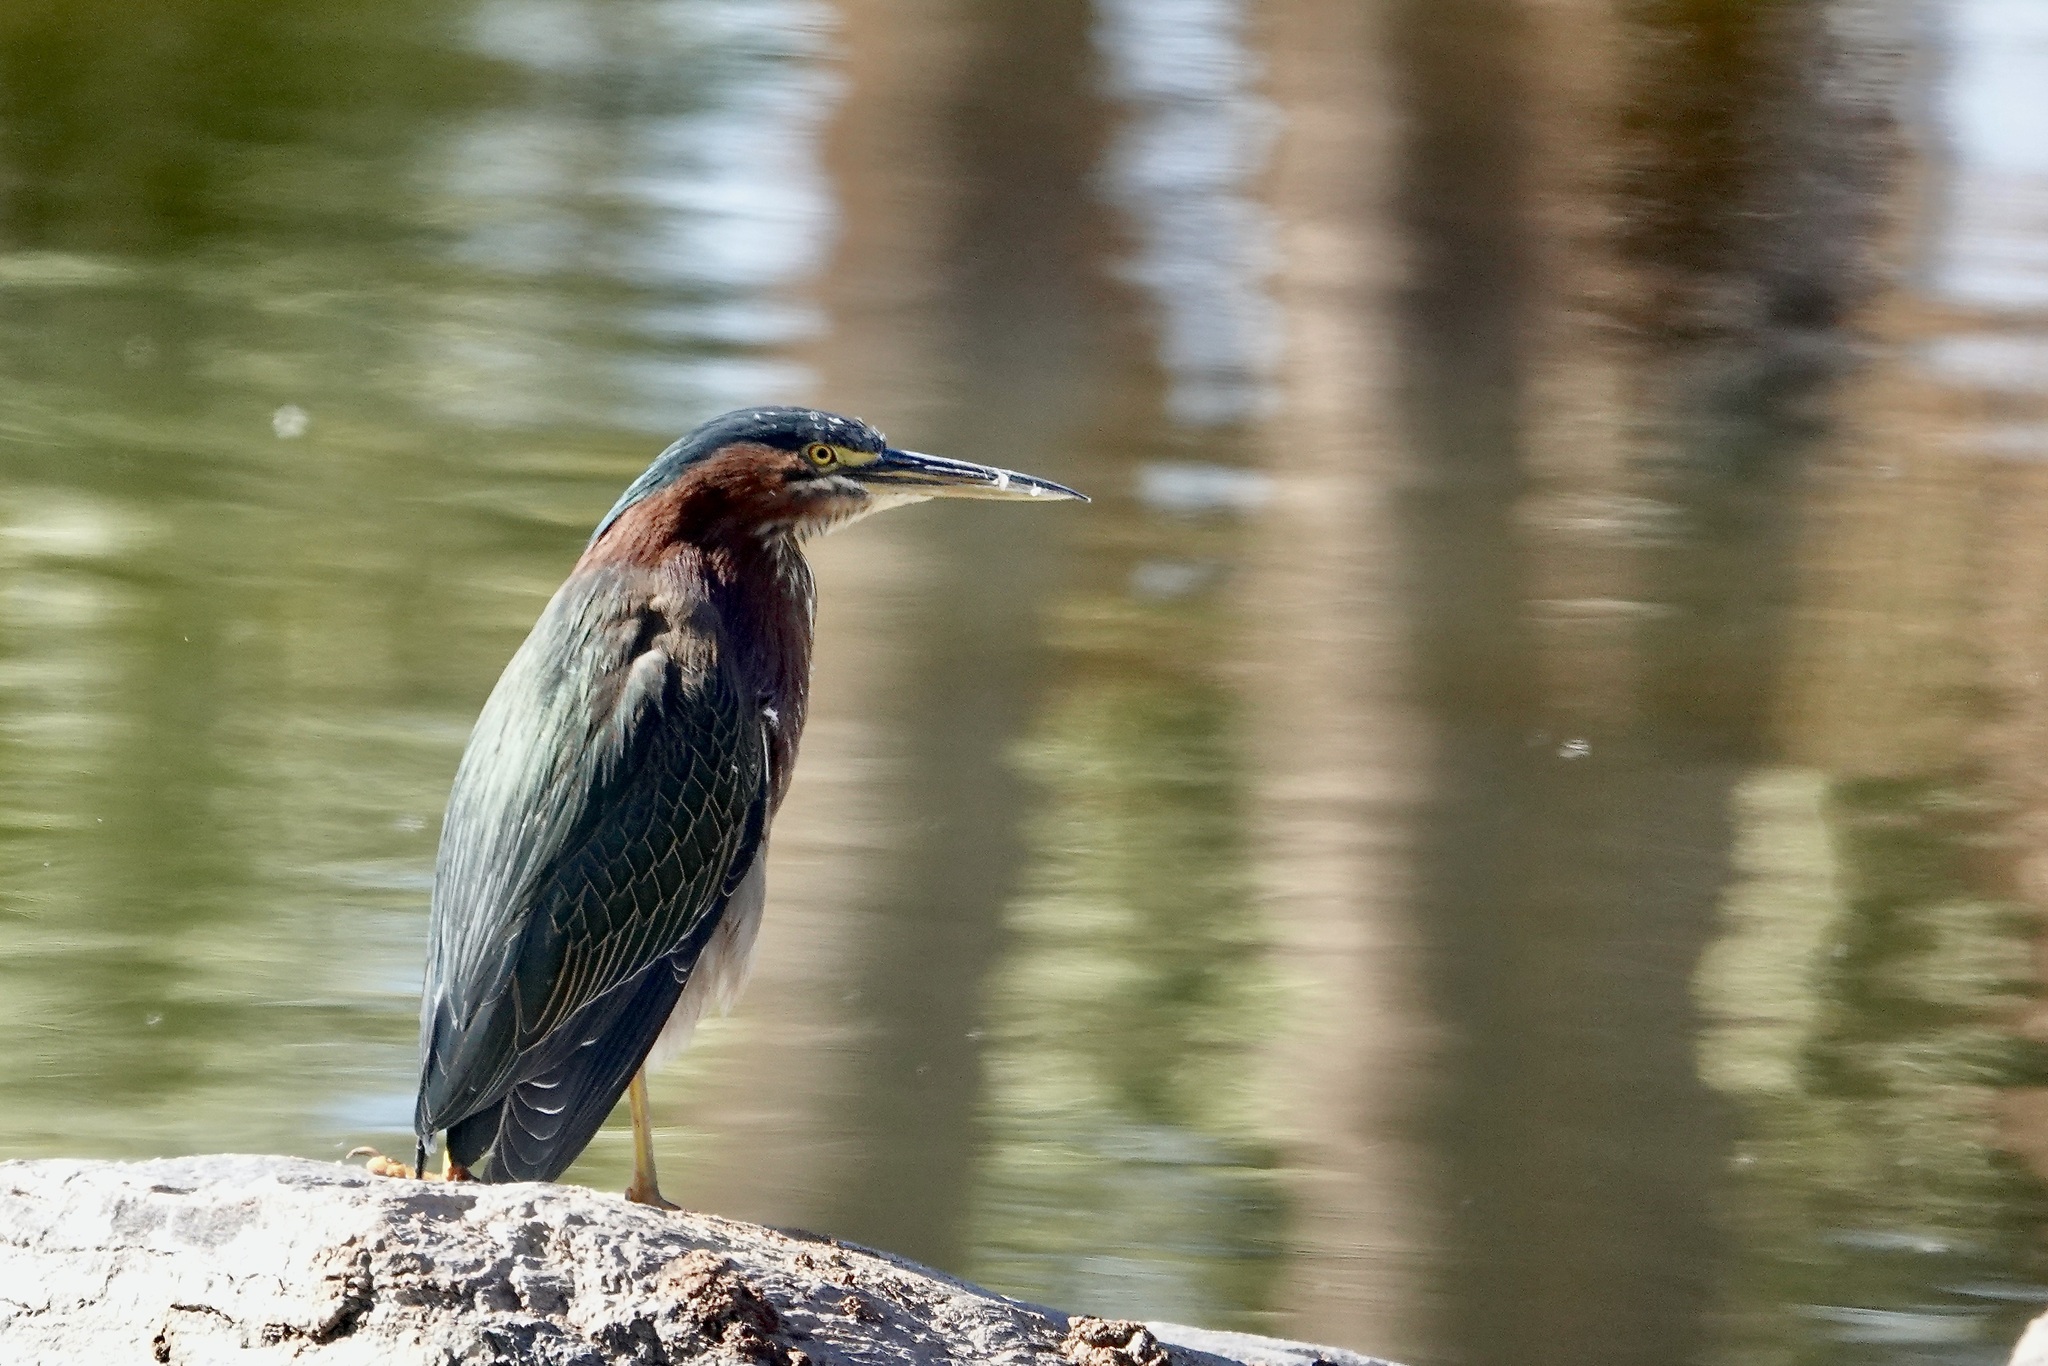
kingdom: Animalia
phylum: Chordata
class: Aves
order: Pelecaniformes
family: Ardeidae
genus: Butorides
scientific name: Butorides virescens
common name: Green heron
